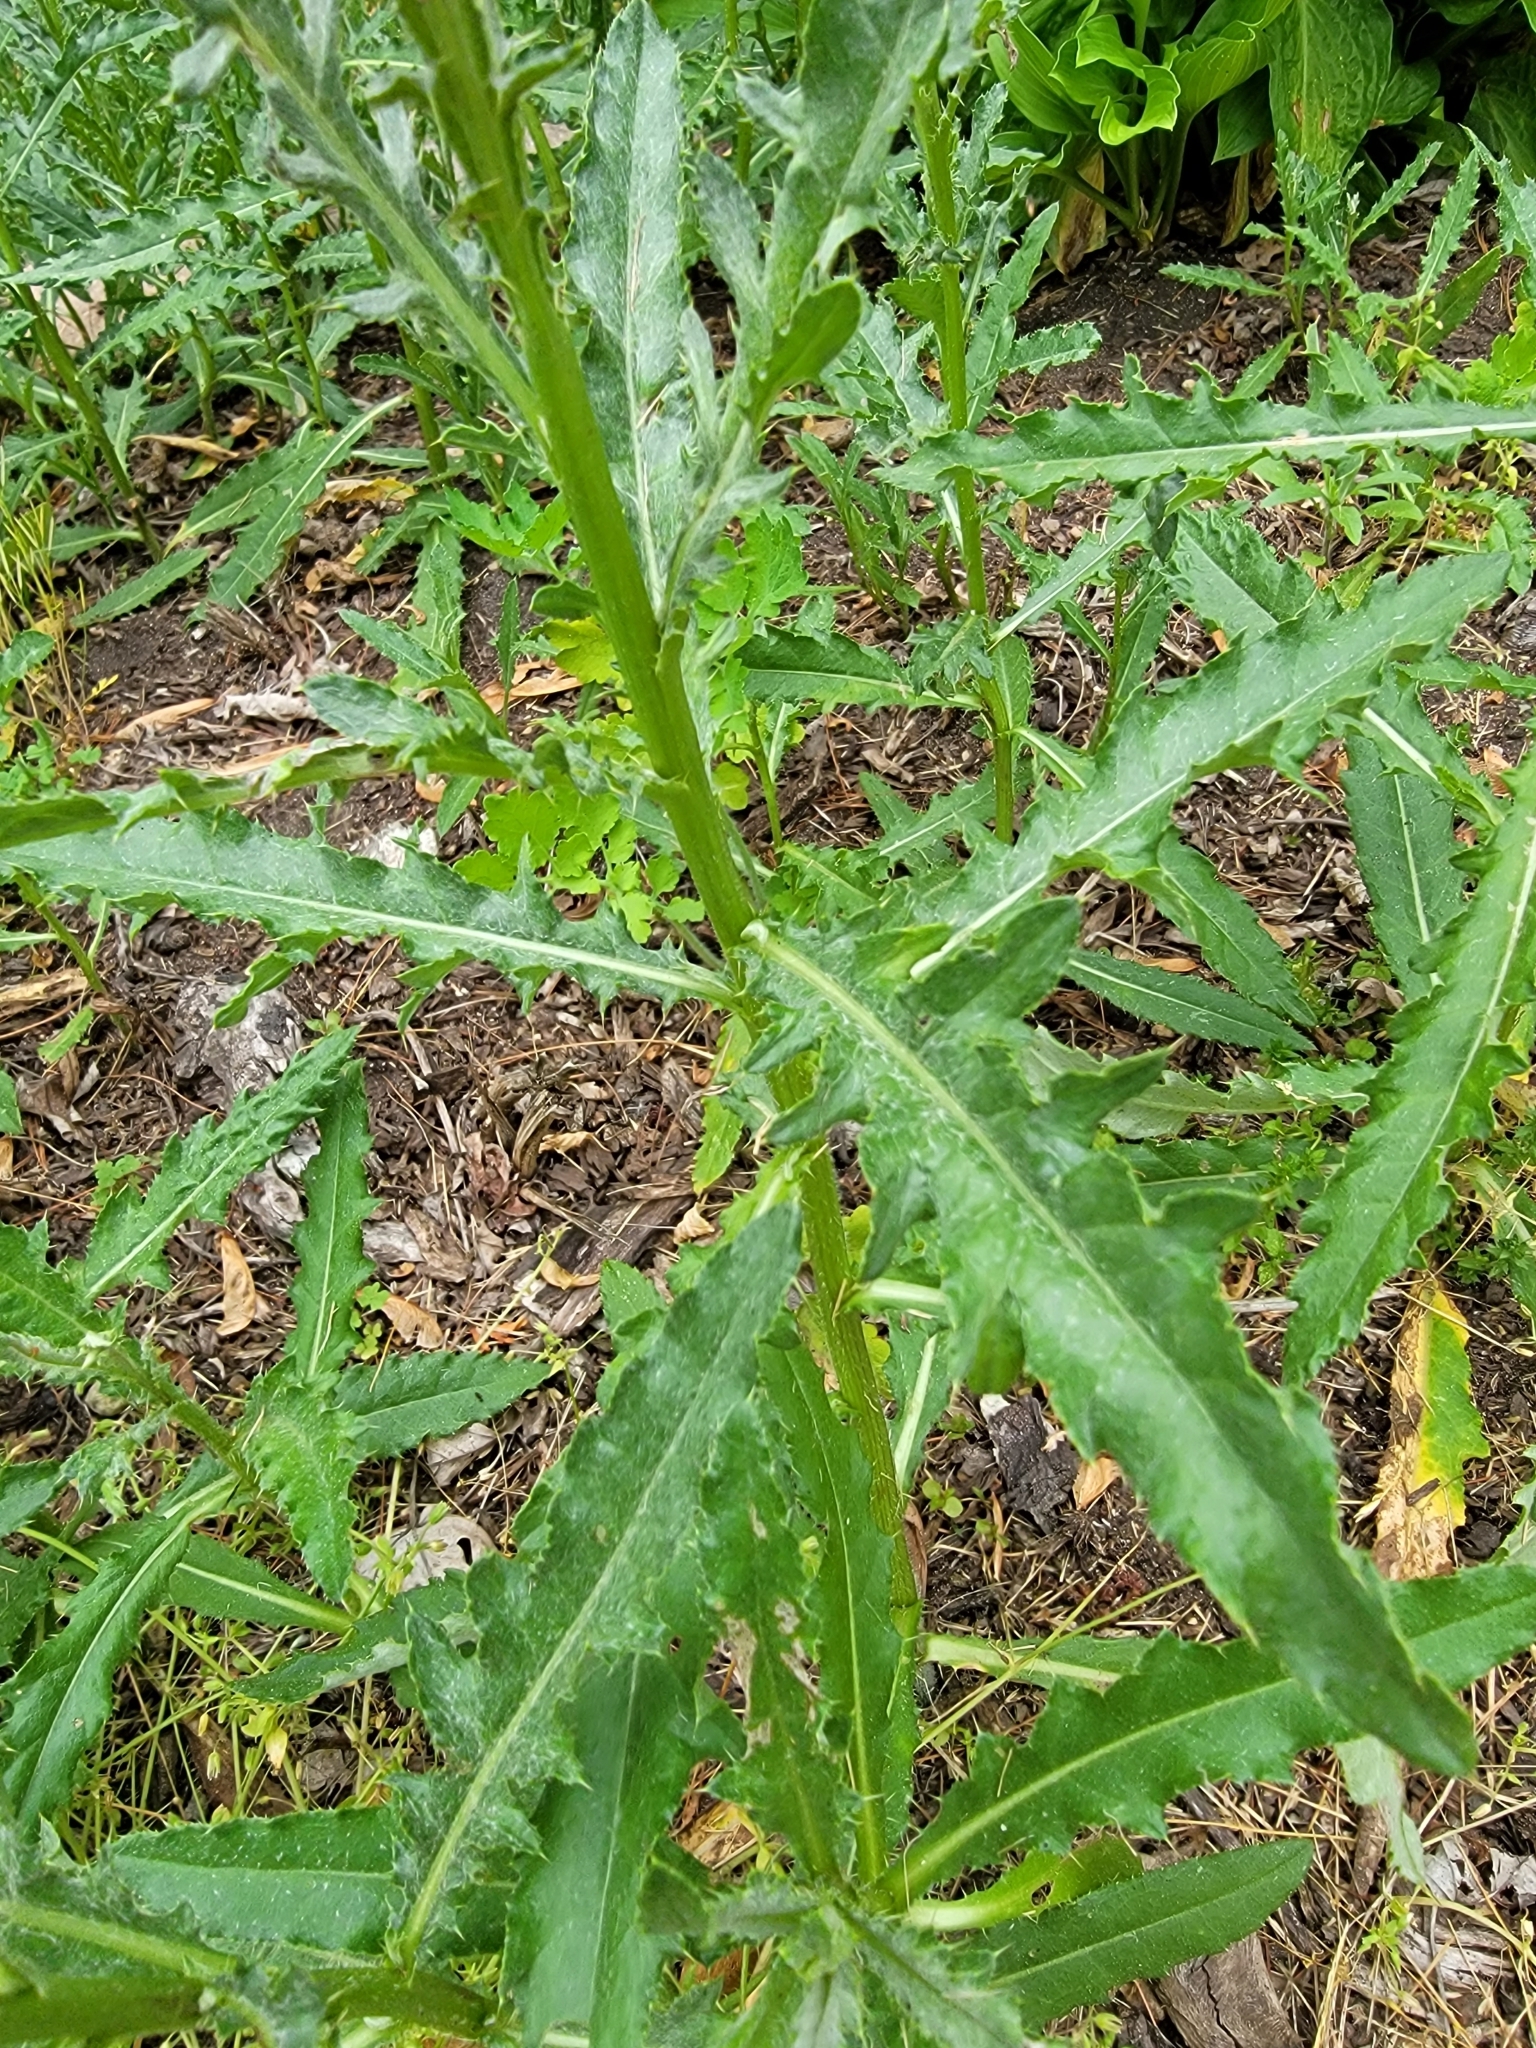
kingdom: Plantae
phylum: Tracheophyta
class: Magnoliopsida
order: Asterales
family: Asteraceae
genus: Cirsium
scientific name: Cirsium arvense
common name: Creeping thistle
